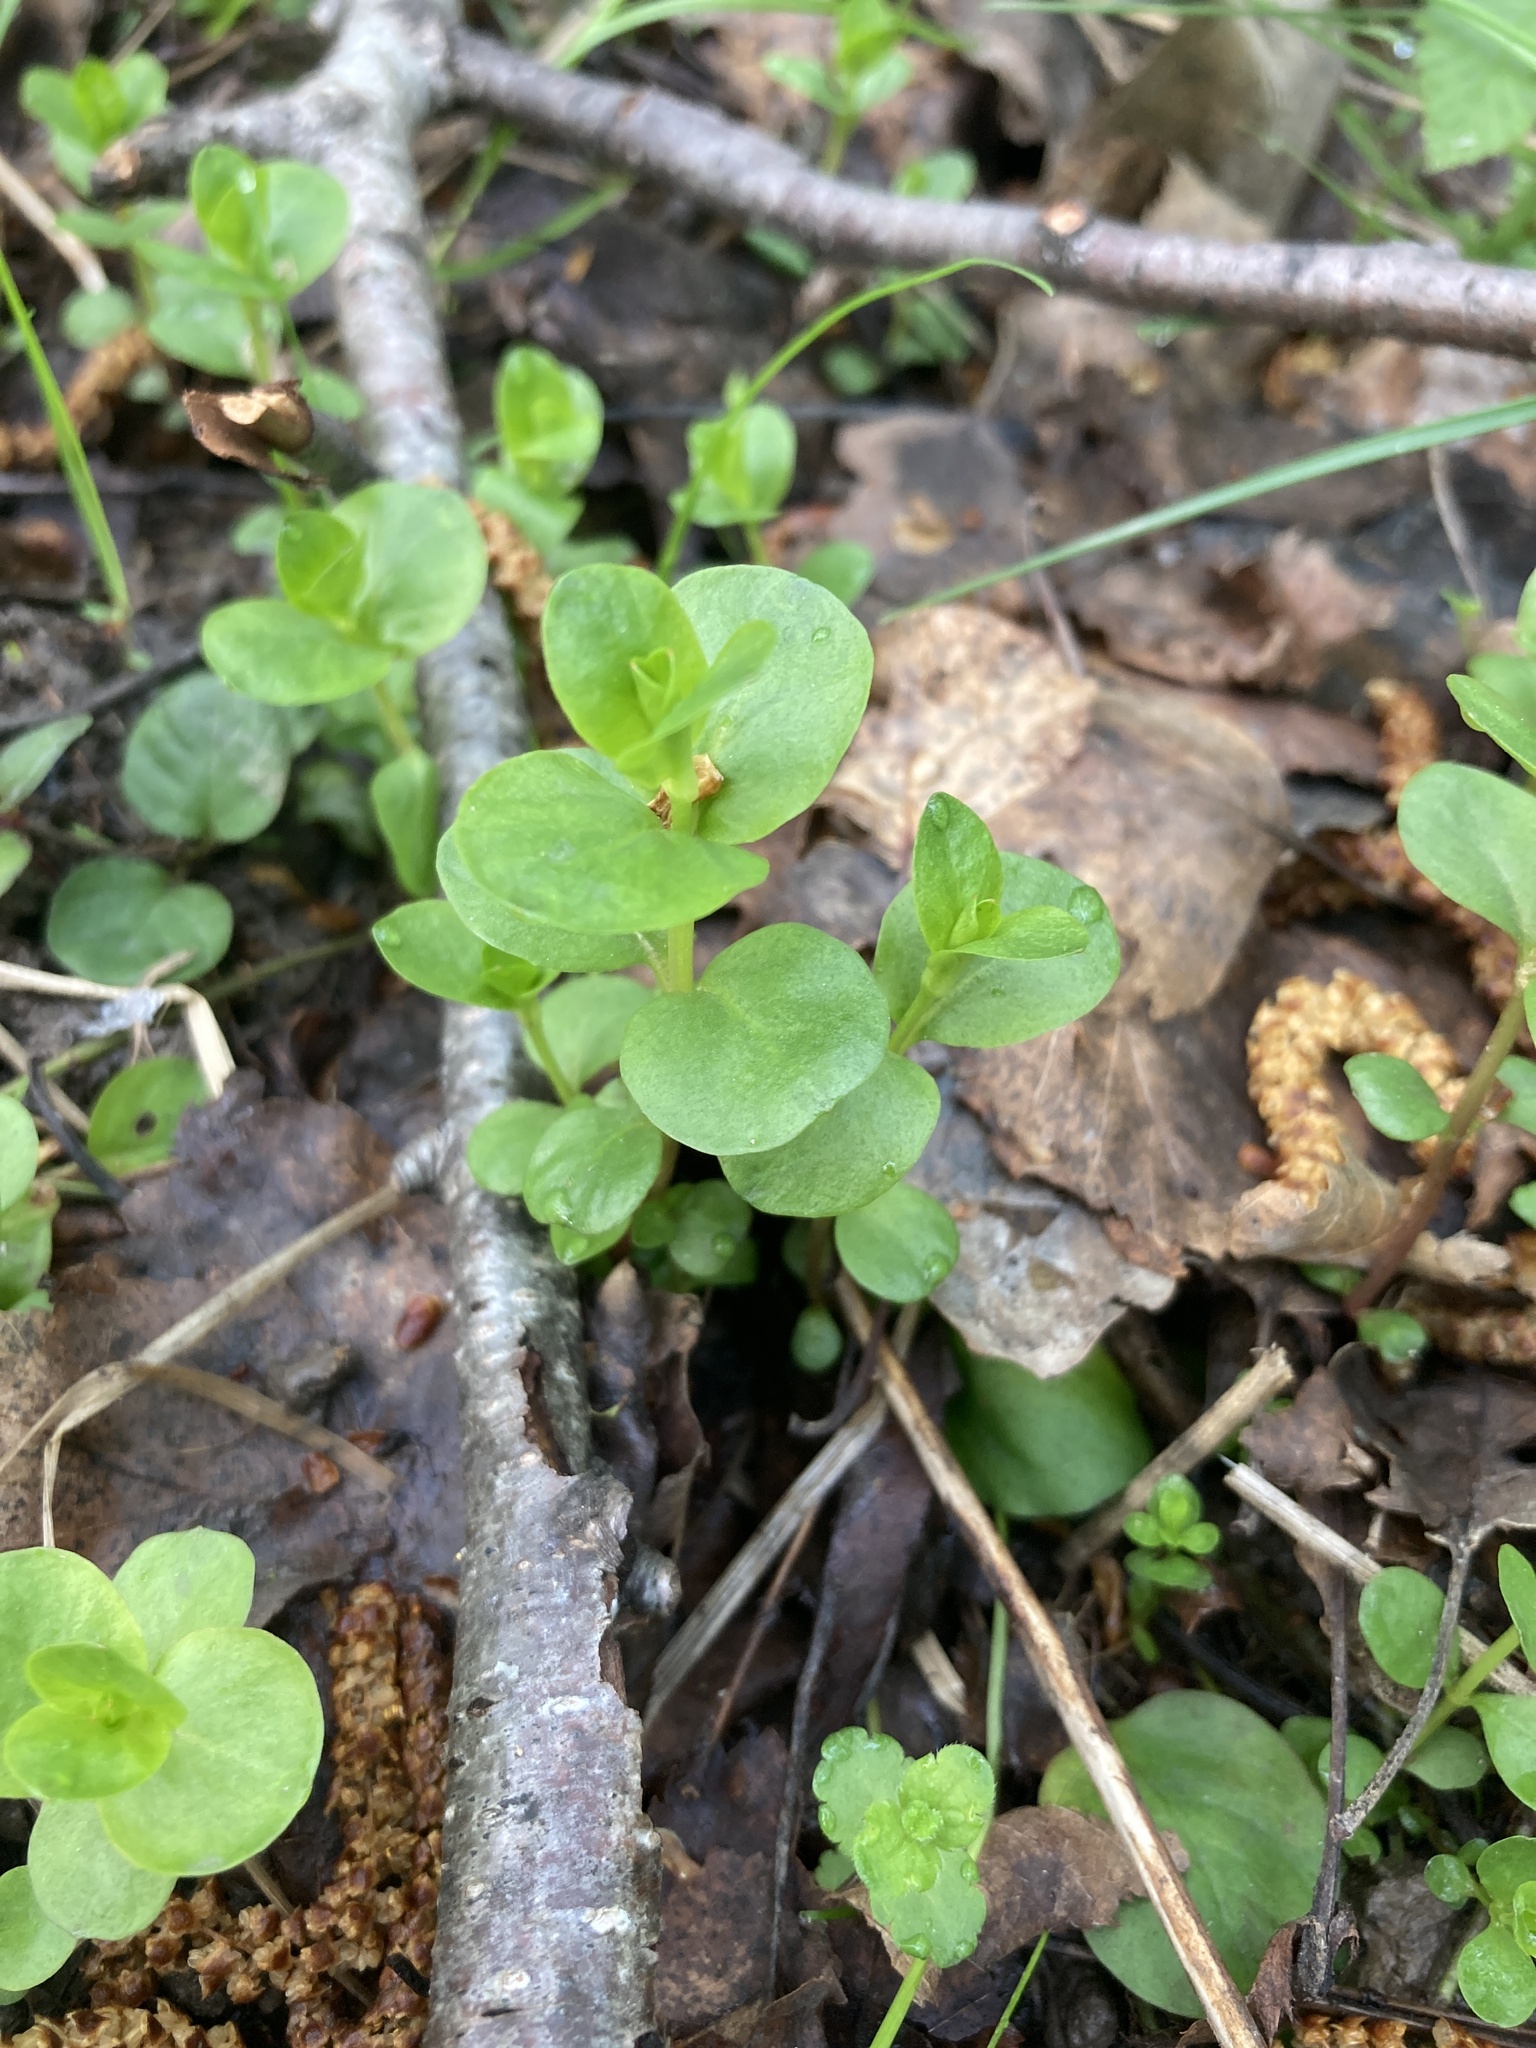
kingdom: Plantae
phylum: Tracheophyta
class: Magnoliopsida
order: Ericales
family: Primulaceae
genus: Lysimachia
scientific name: Lysimachia nummularia
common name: Moneywort
